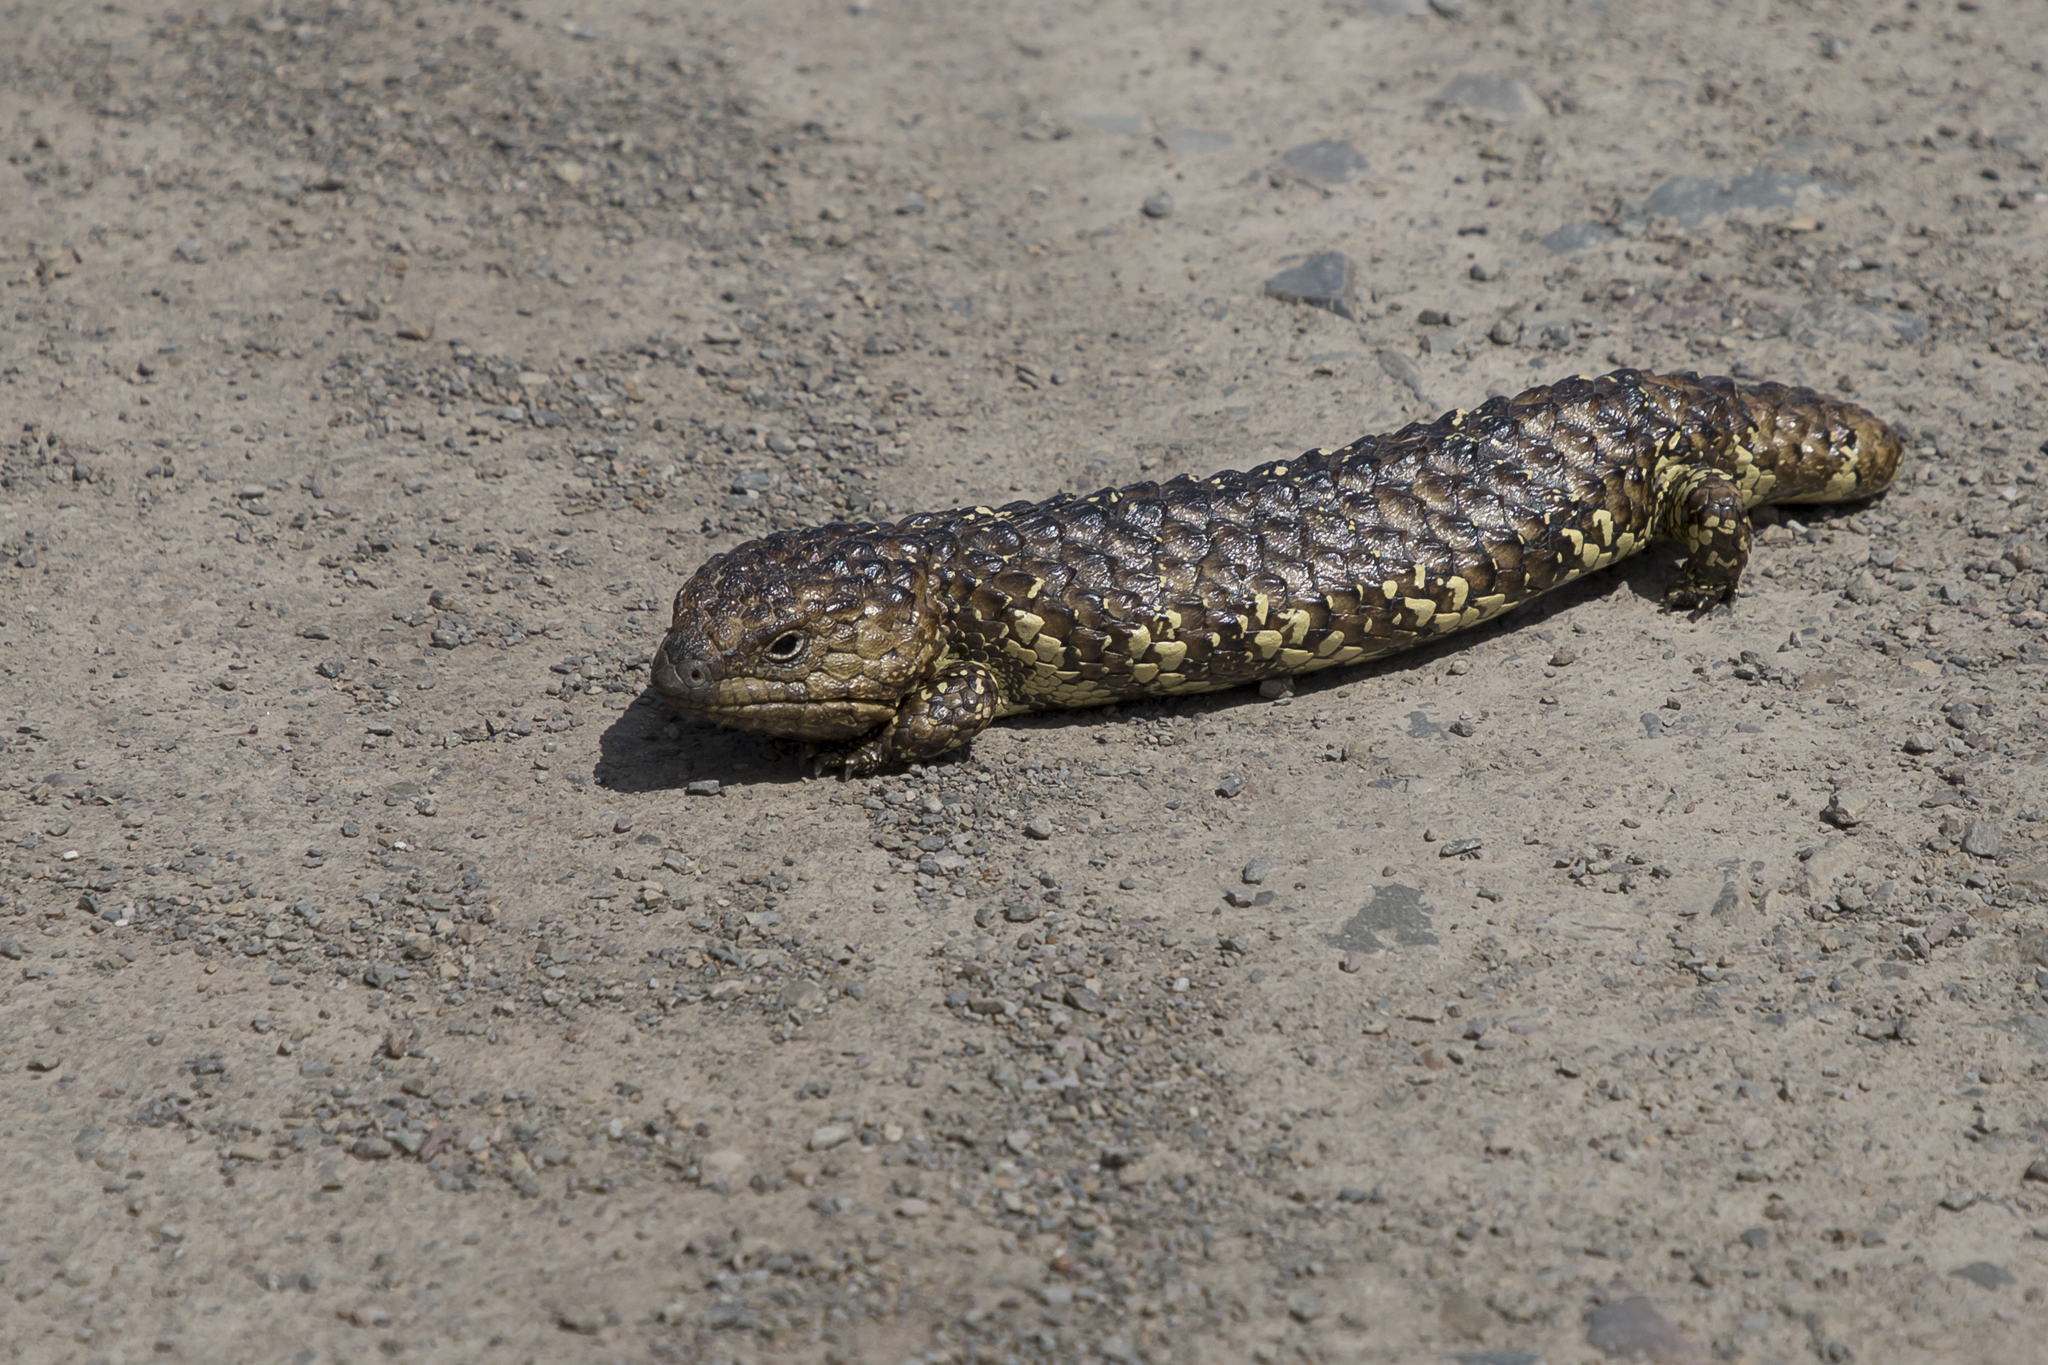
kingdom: Animalia
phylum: Chordata
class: Squamata
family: Scincidae
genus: Tiliqua
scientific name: Tiliqua rugosa
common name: Pinecone lizard
